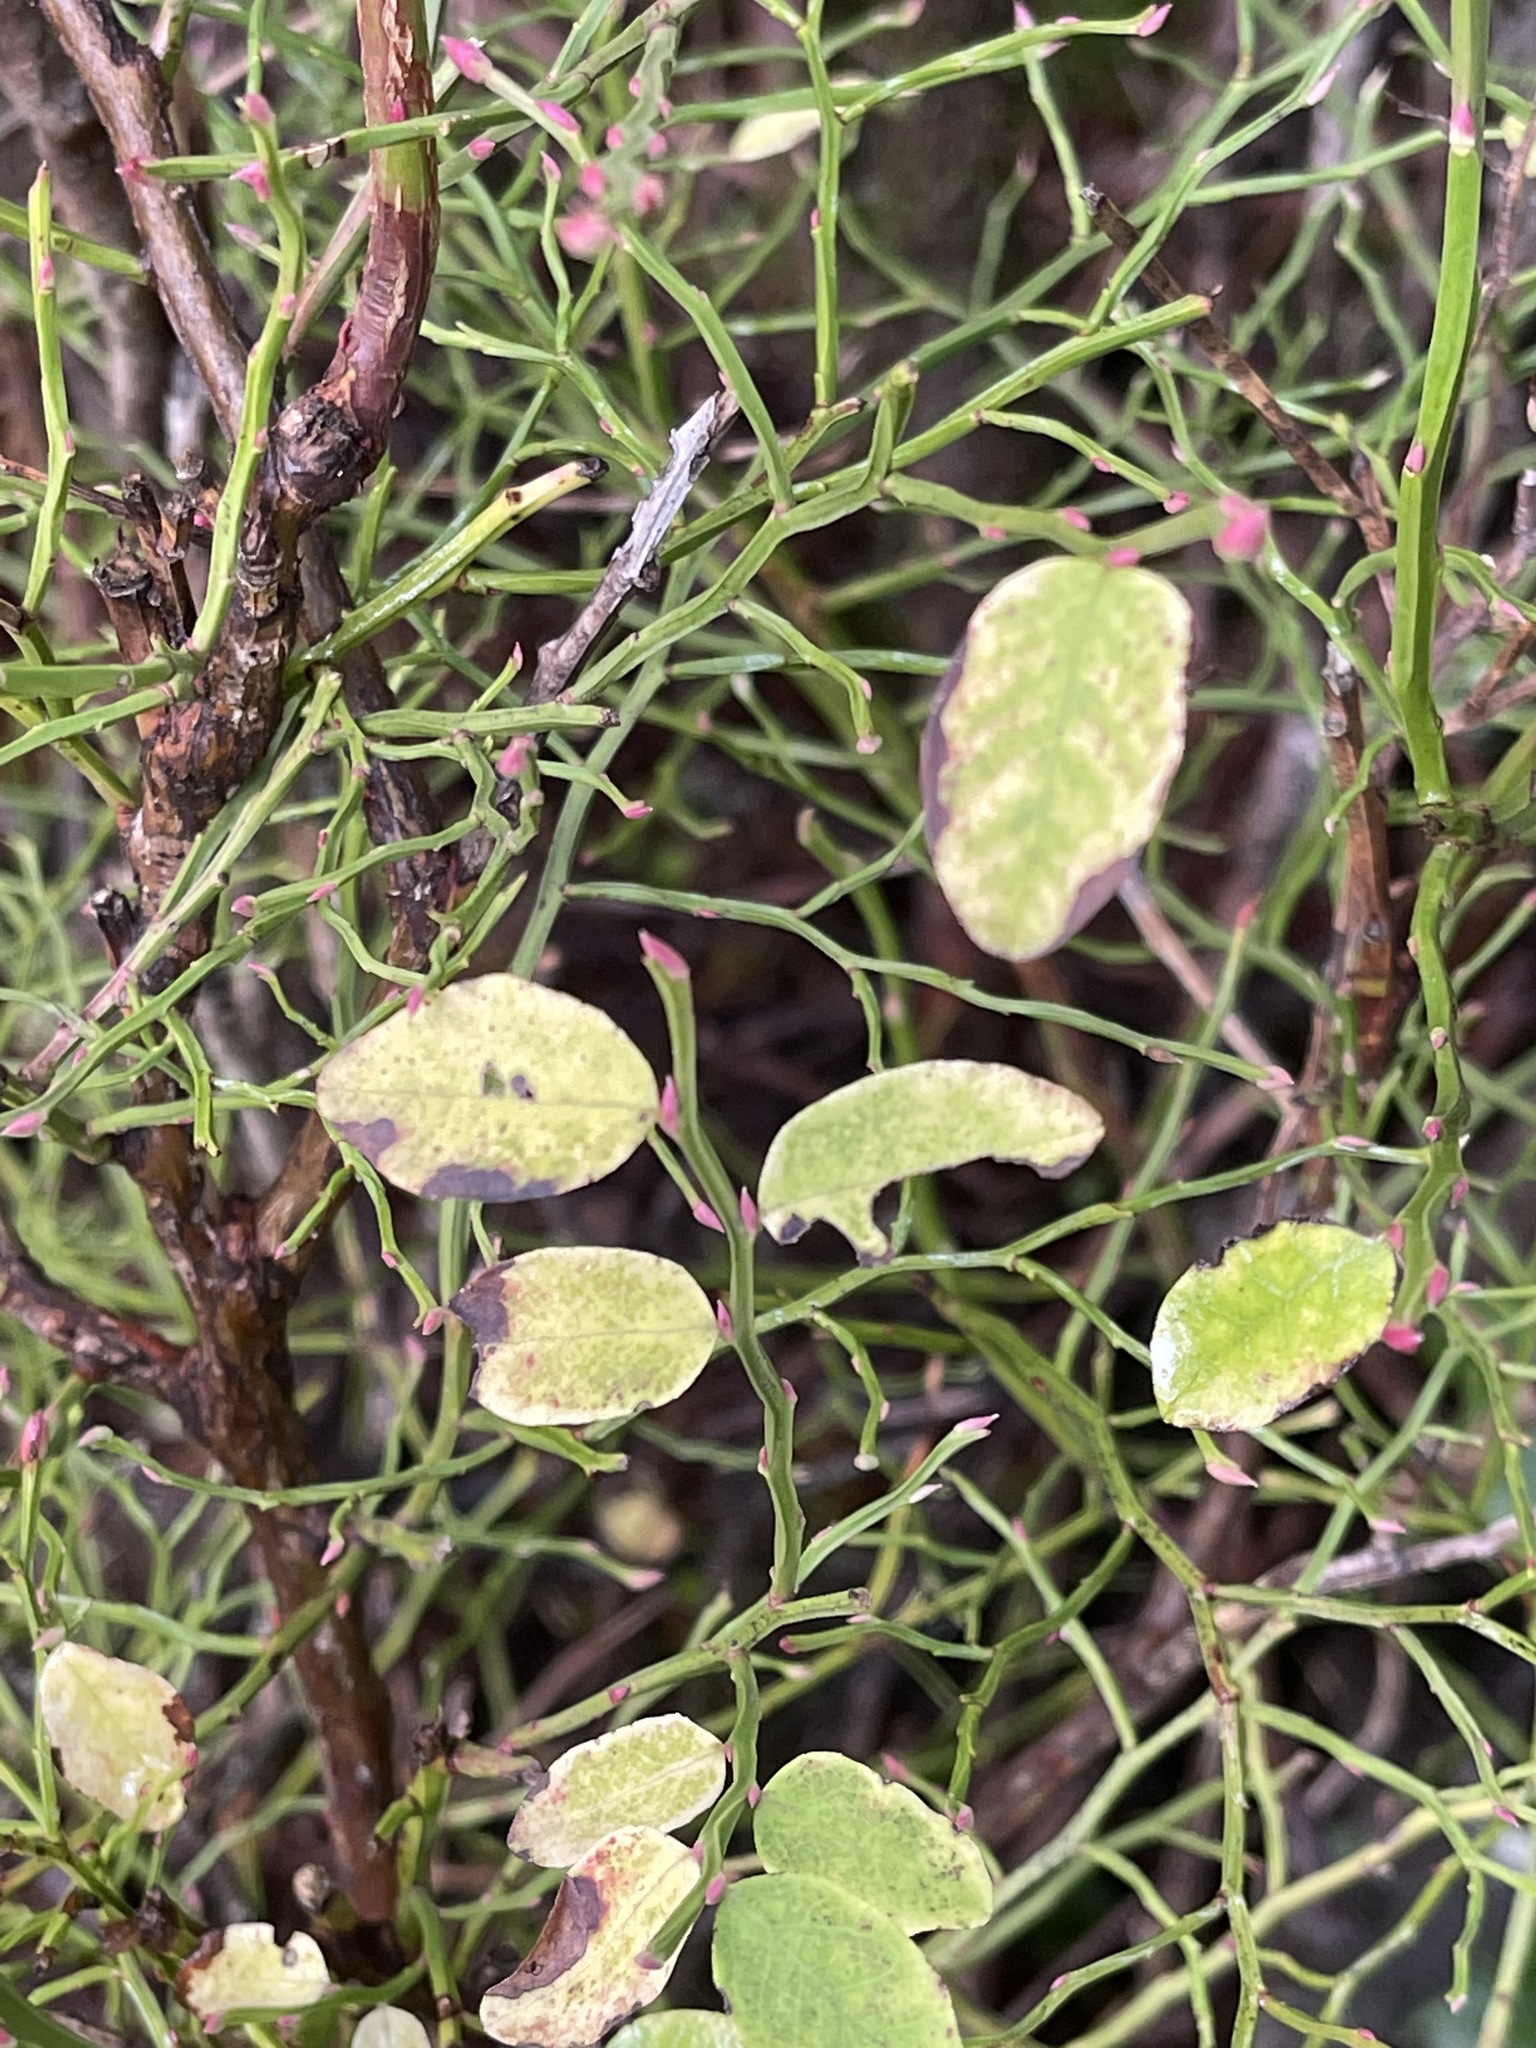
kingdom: Plantae
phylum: Tracheophyta
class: Magnoliopsida
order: Ericales
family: Ericaceae
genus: Vaccinium
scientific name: Vaccinium parvifolium
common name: Red-huckleberry
